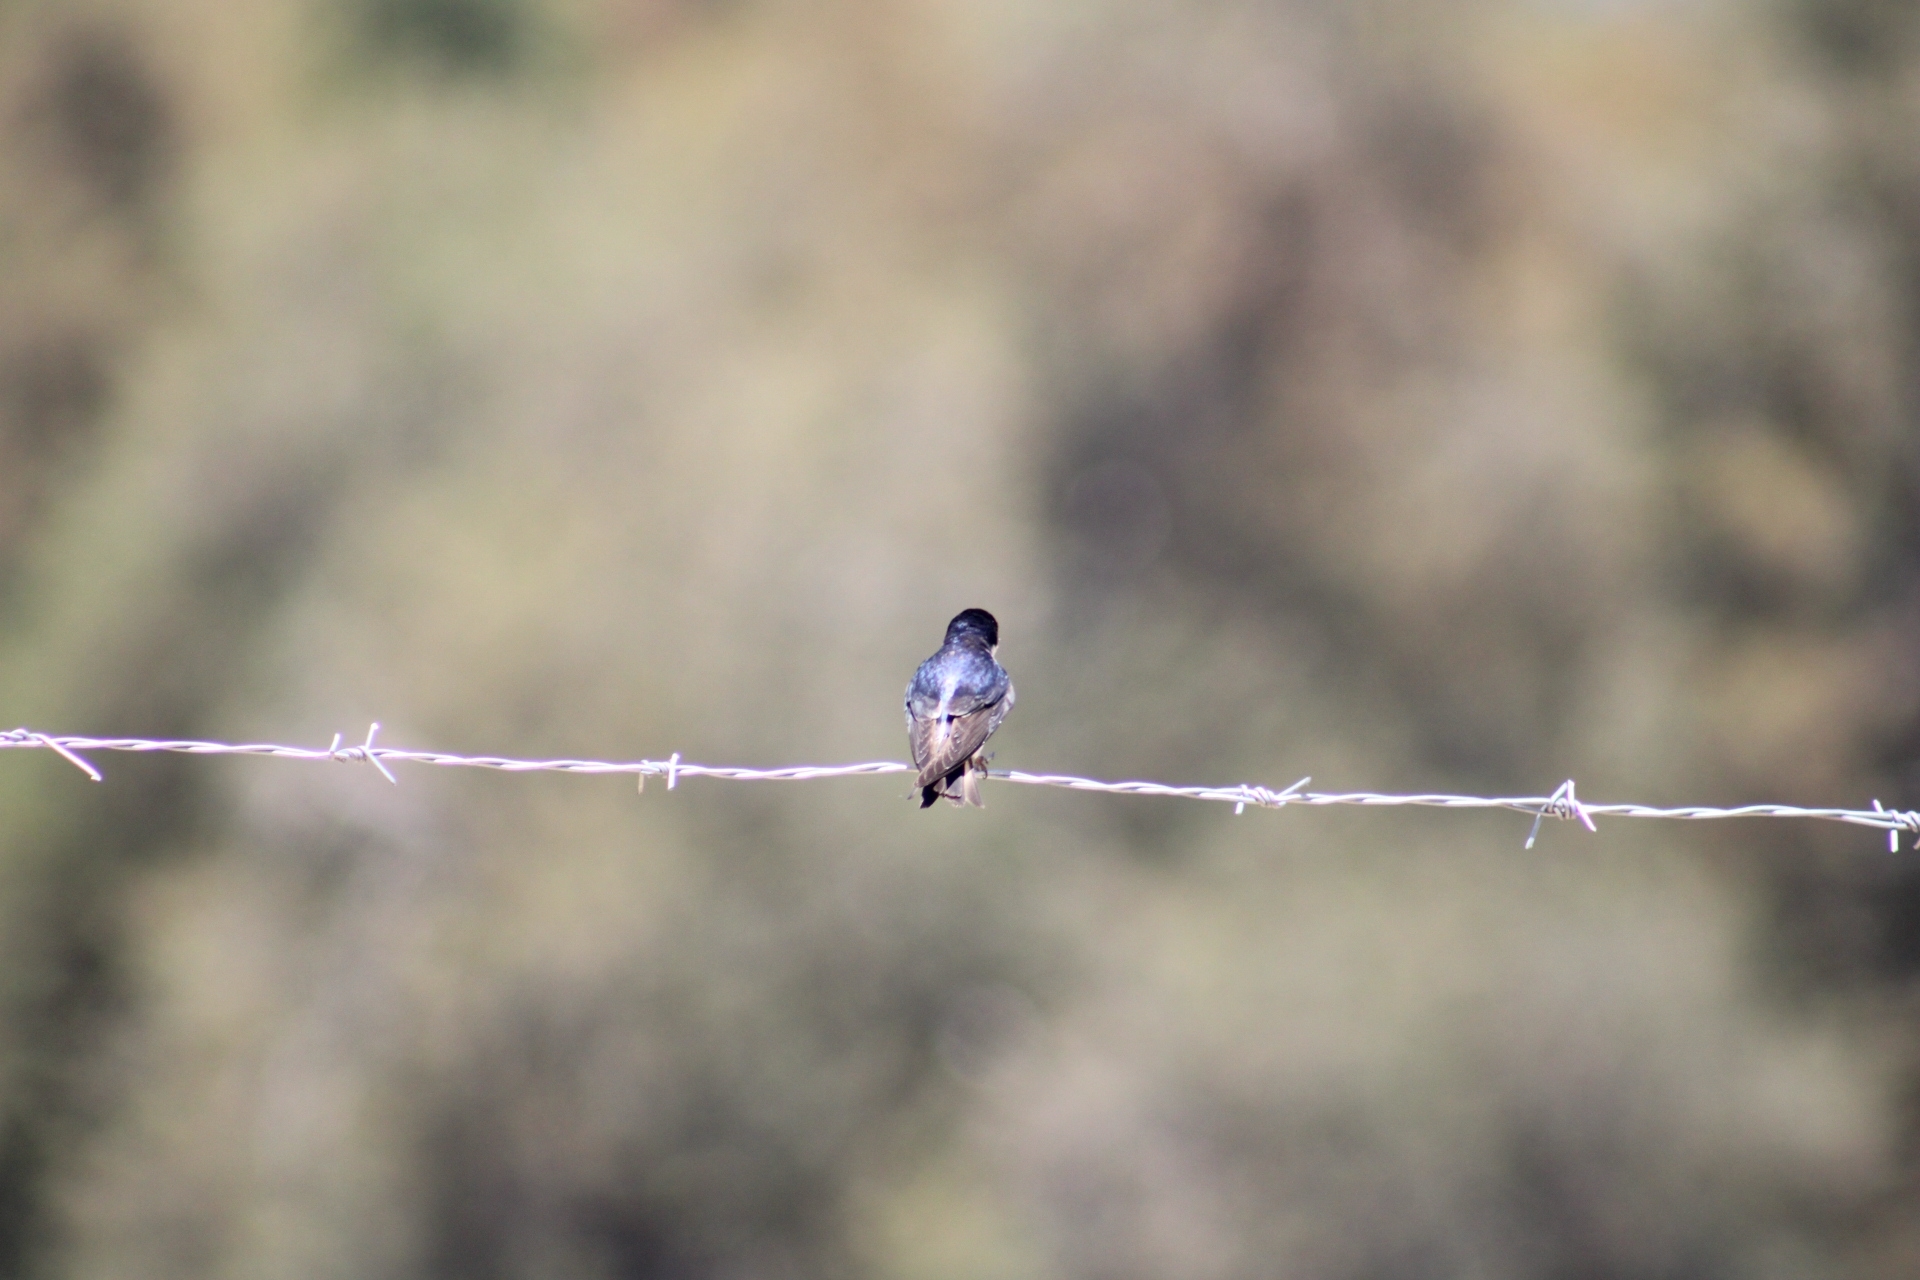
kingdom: Animalia
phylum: Chordata
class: Aves
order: Passeriformes
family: Hirundinidae
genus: Tachycineta
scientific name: Tachycineta leucopyga
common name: Chilean swallow
